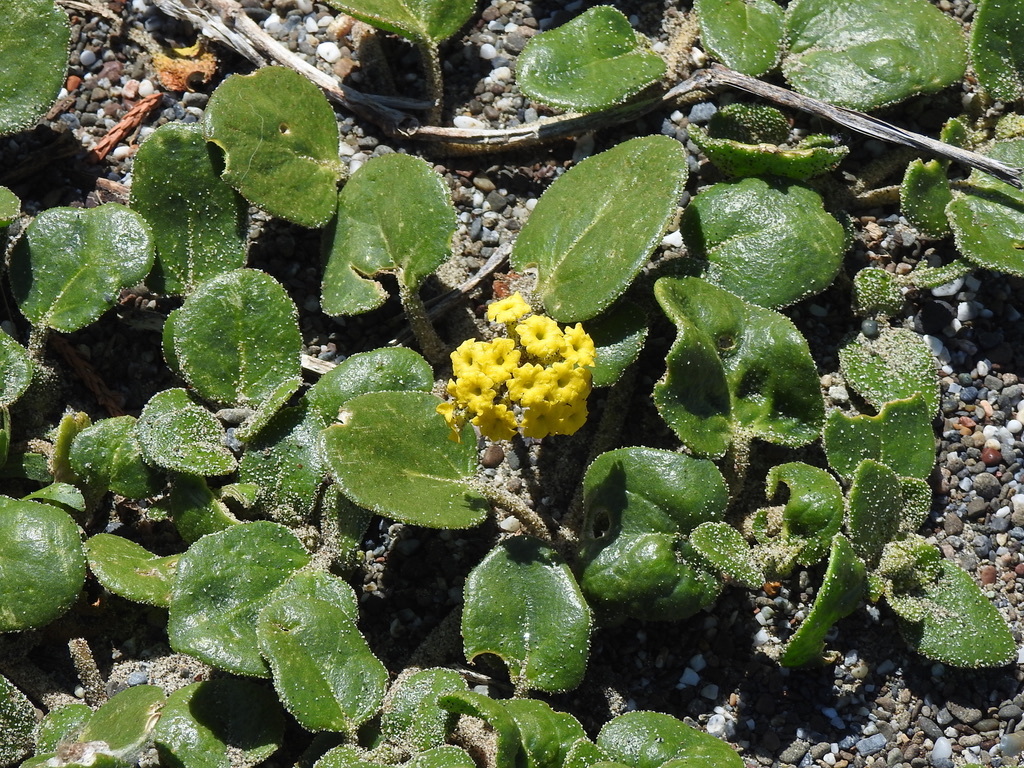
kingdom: Plantae
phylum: Tracheophyta
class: Magnoliopsida
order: Caryophyllales
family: Nyctaginaceae
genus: Abronia
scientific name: Abronia latifolia
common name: Yellow sand-verbena
